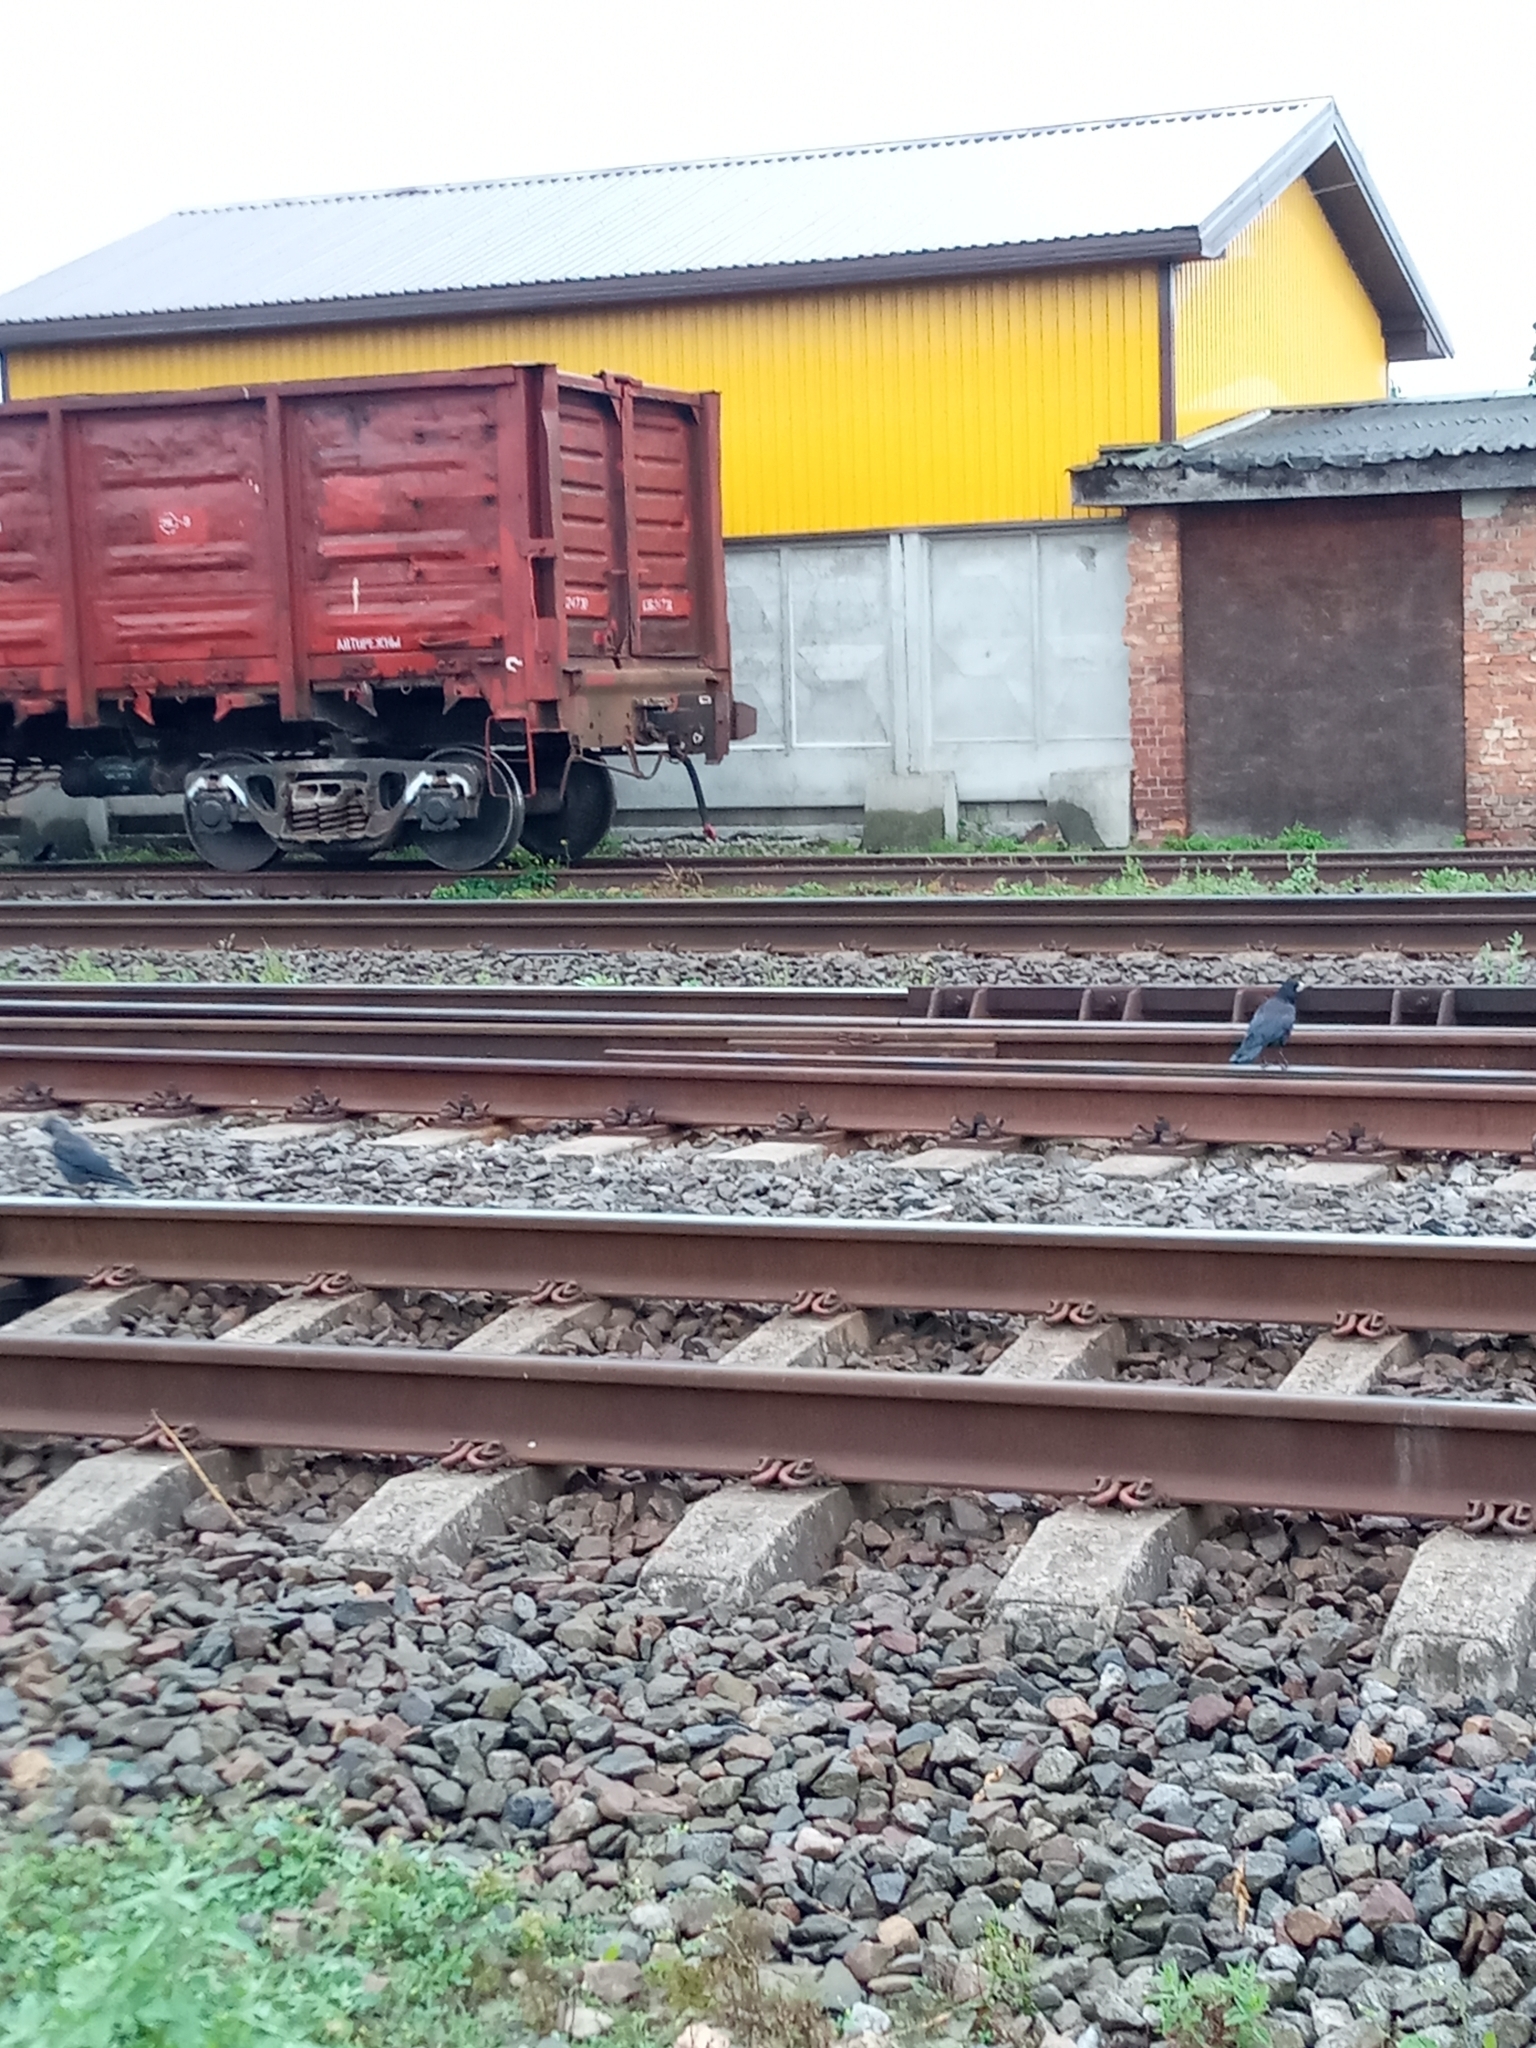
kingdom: Animalia
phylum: Chordata
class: Aves
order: Passeriformes
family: Corvidae
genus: Corvus
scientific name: Corvus frugilegus
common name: Rook
